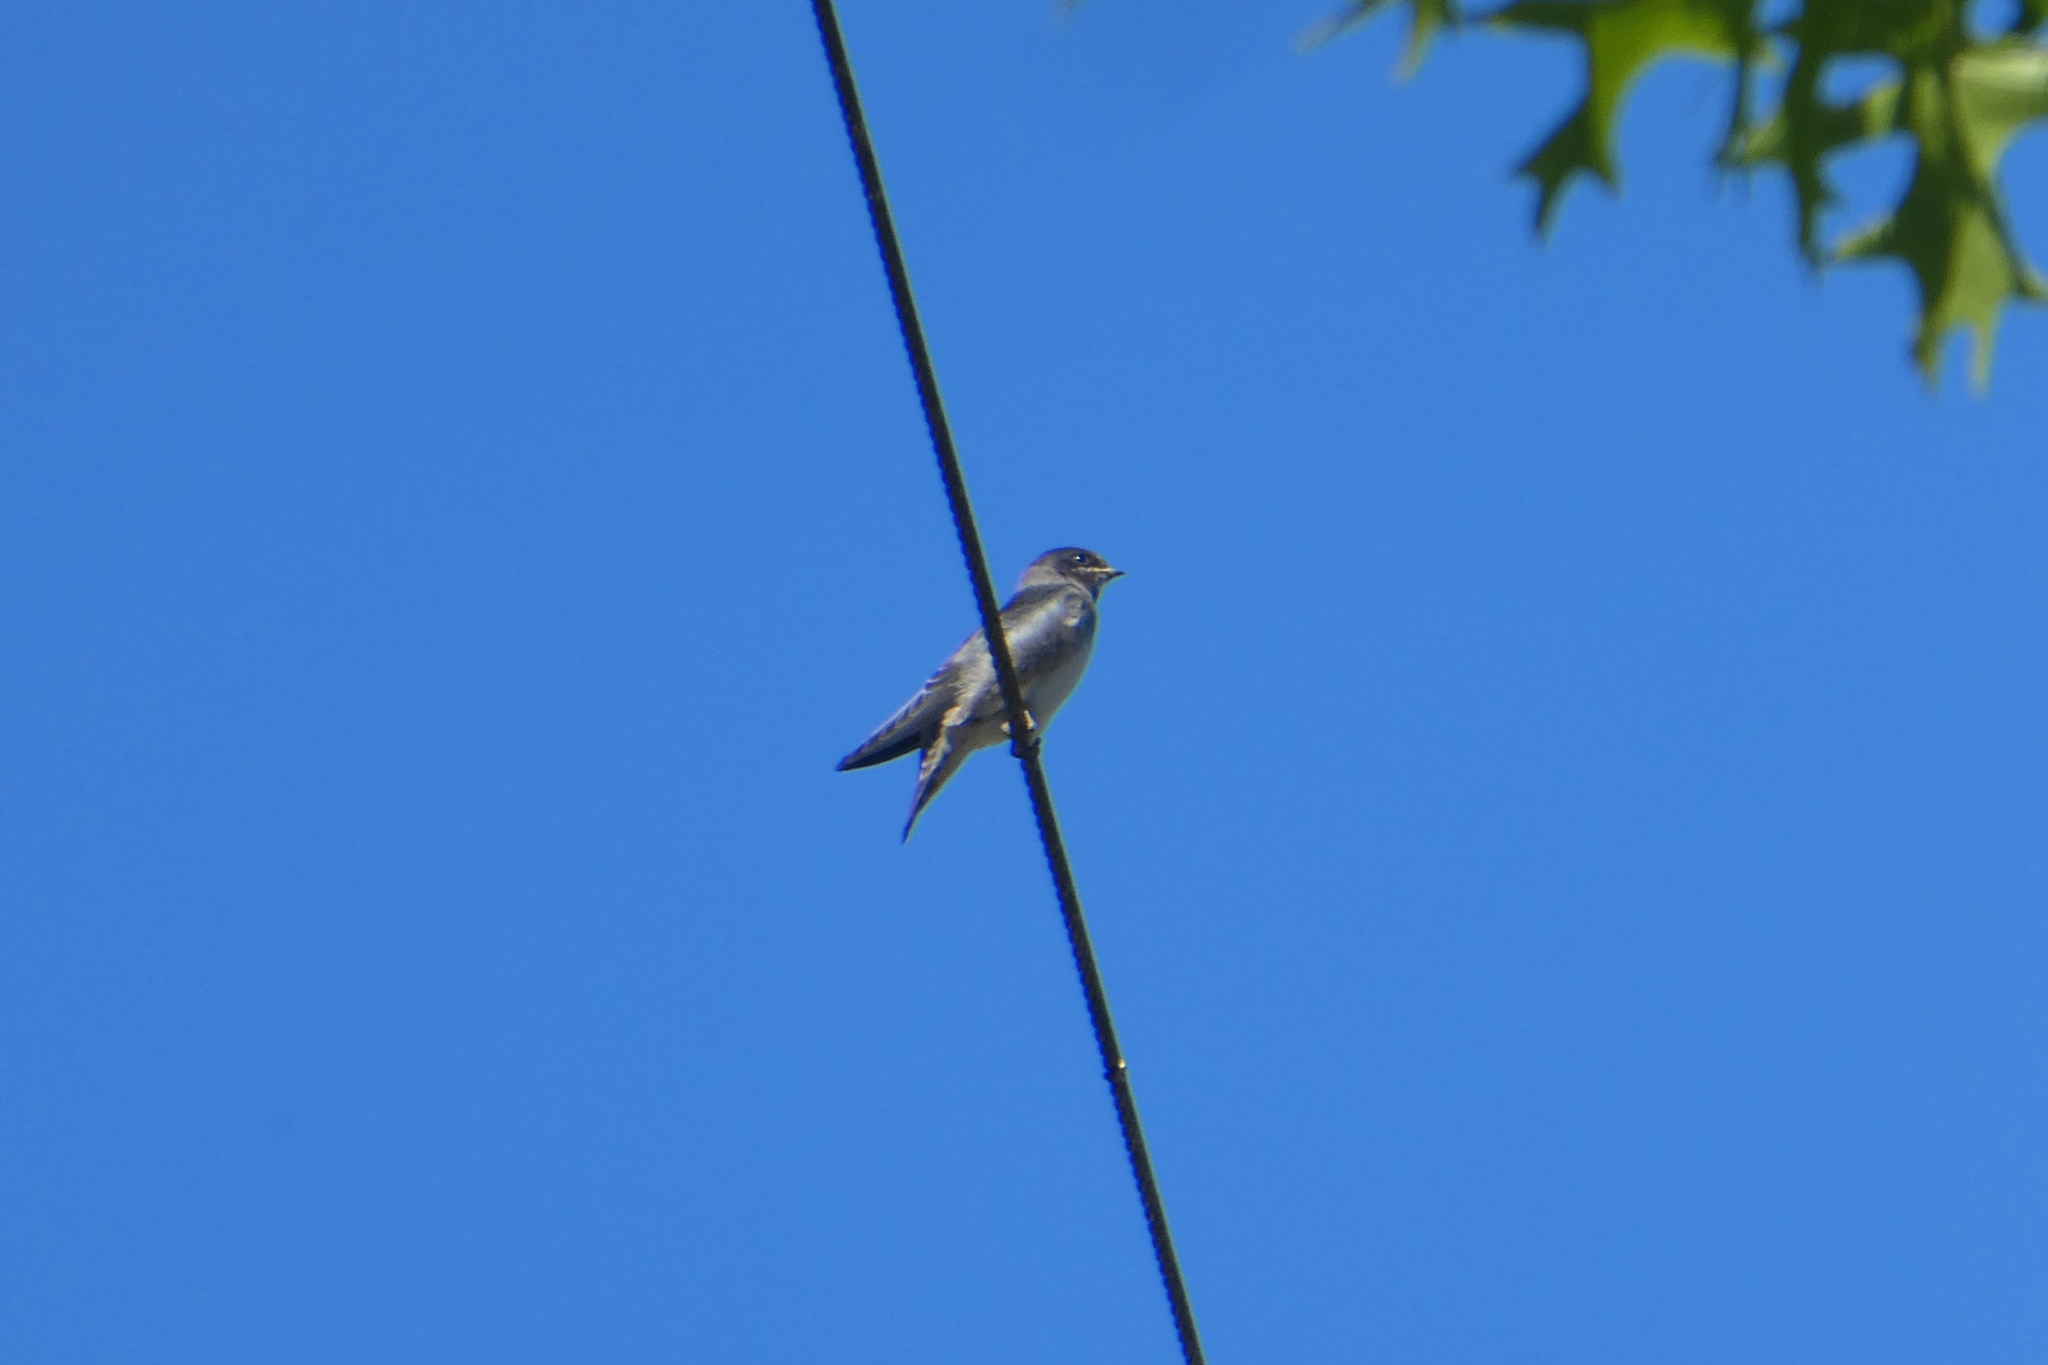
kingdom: Animalia
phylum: Chordata
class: Aves
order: Passeriformes
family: Hirundinidae
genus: Progne
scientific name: Progne subis
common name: Purple martin
